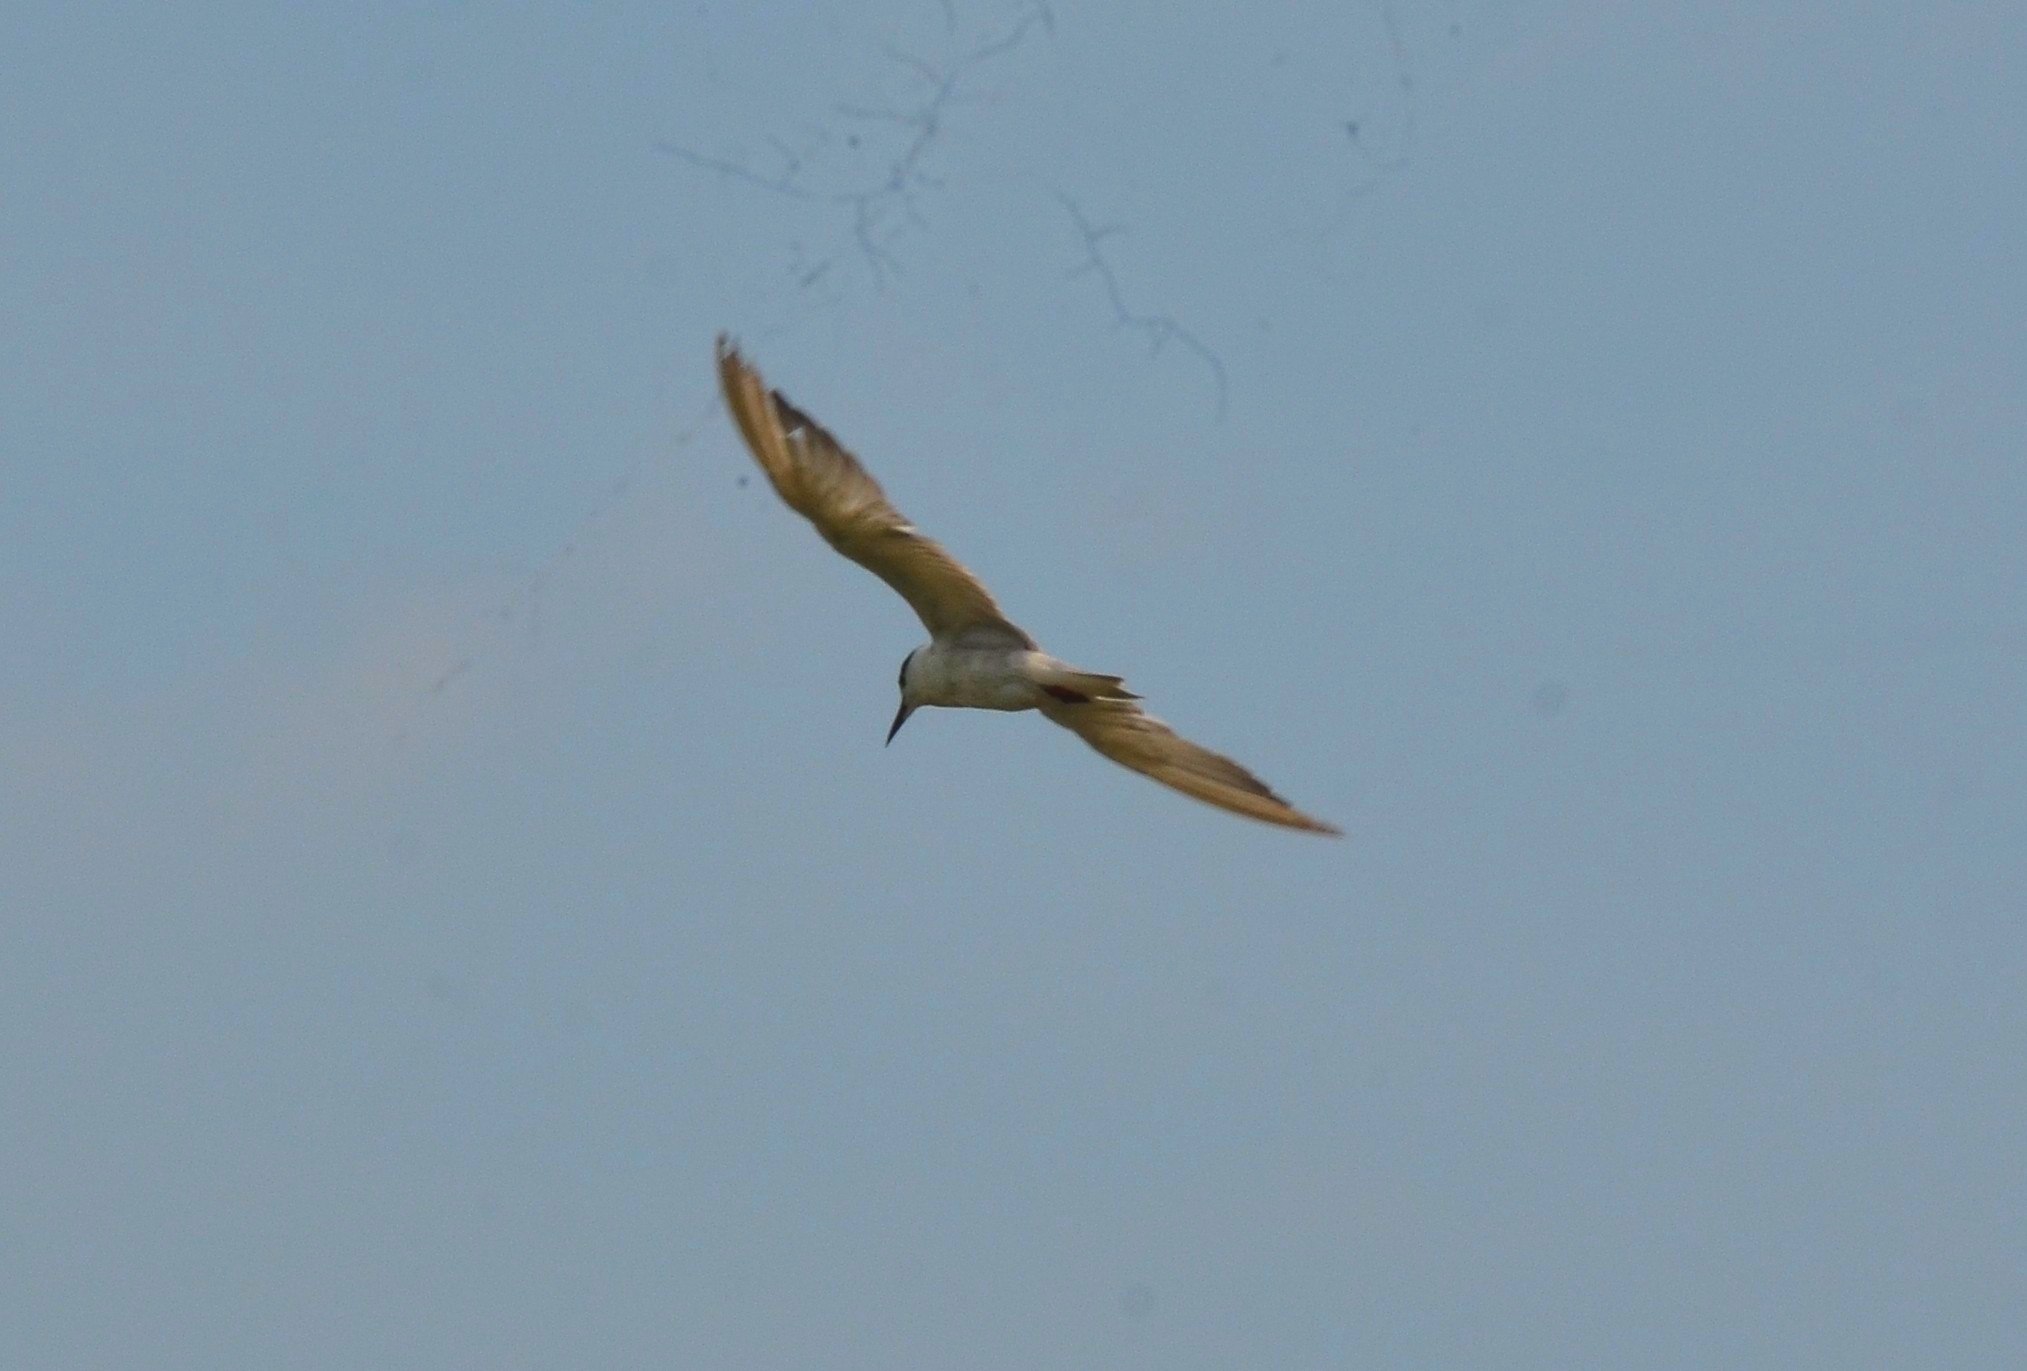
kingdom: Animalia
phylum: Chordata
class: Aves
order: Charadriiformes
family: Laridae
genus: Chlidonias
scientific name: Chlidonias hybrida
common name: Whiskered tern
